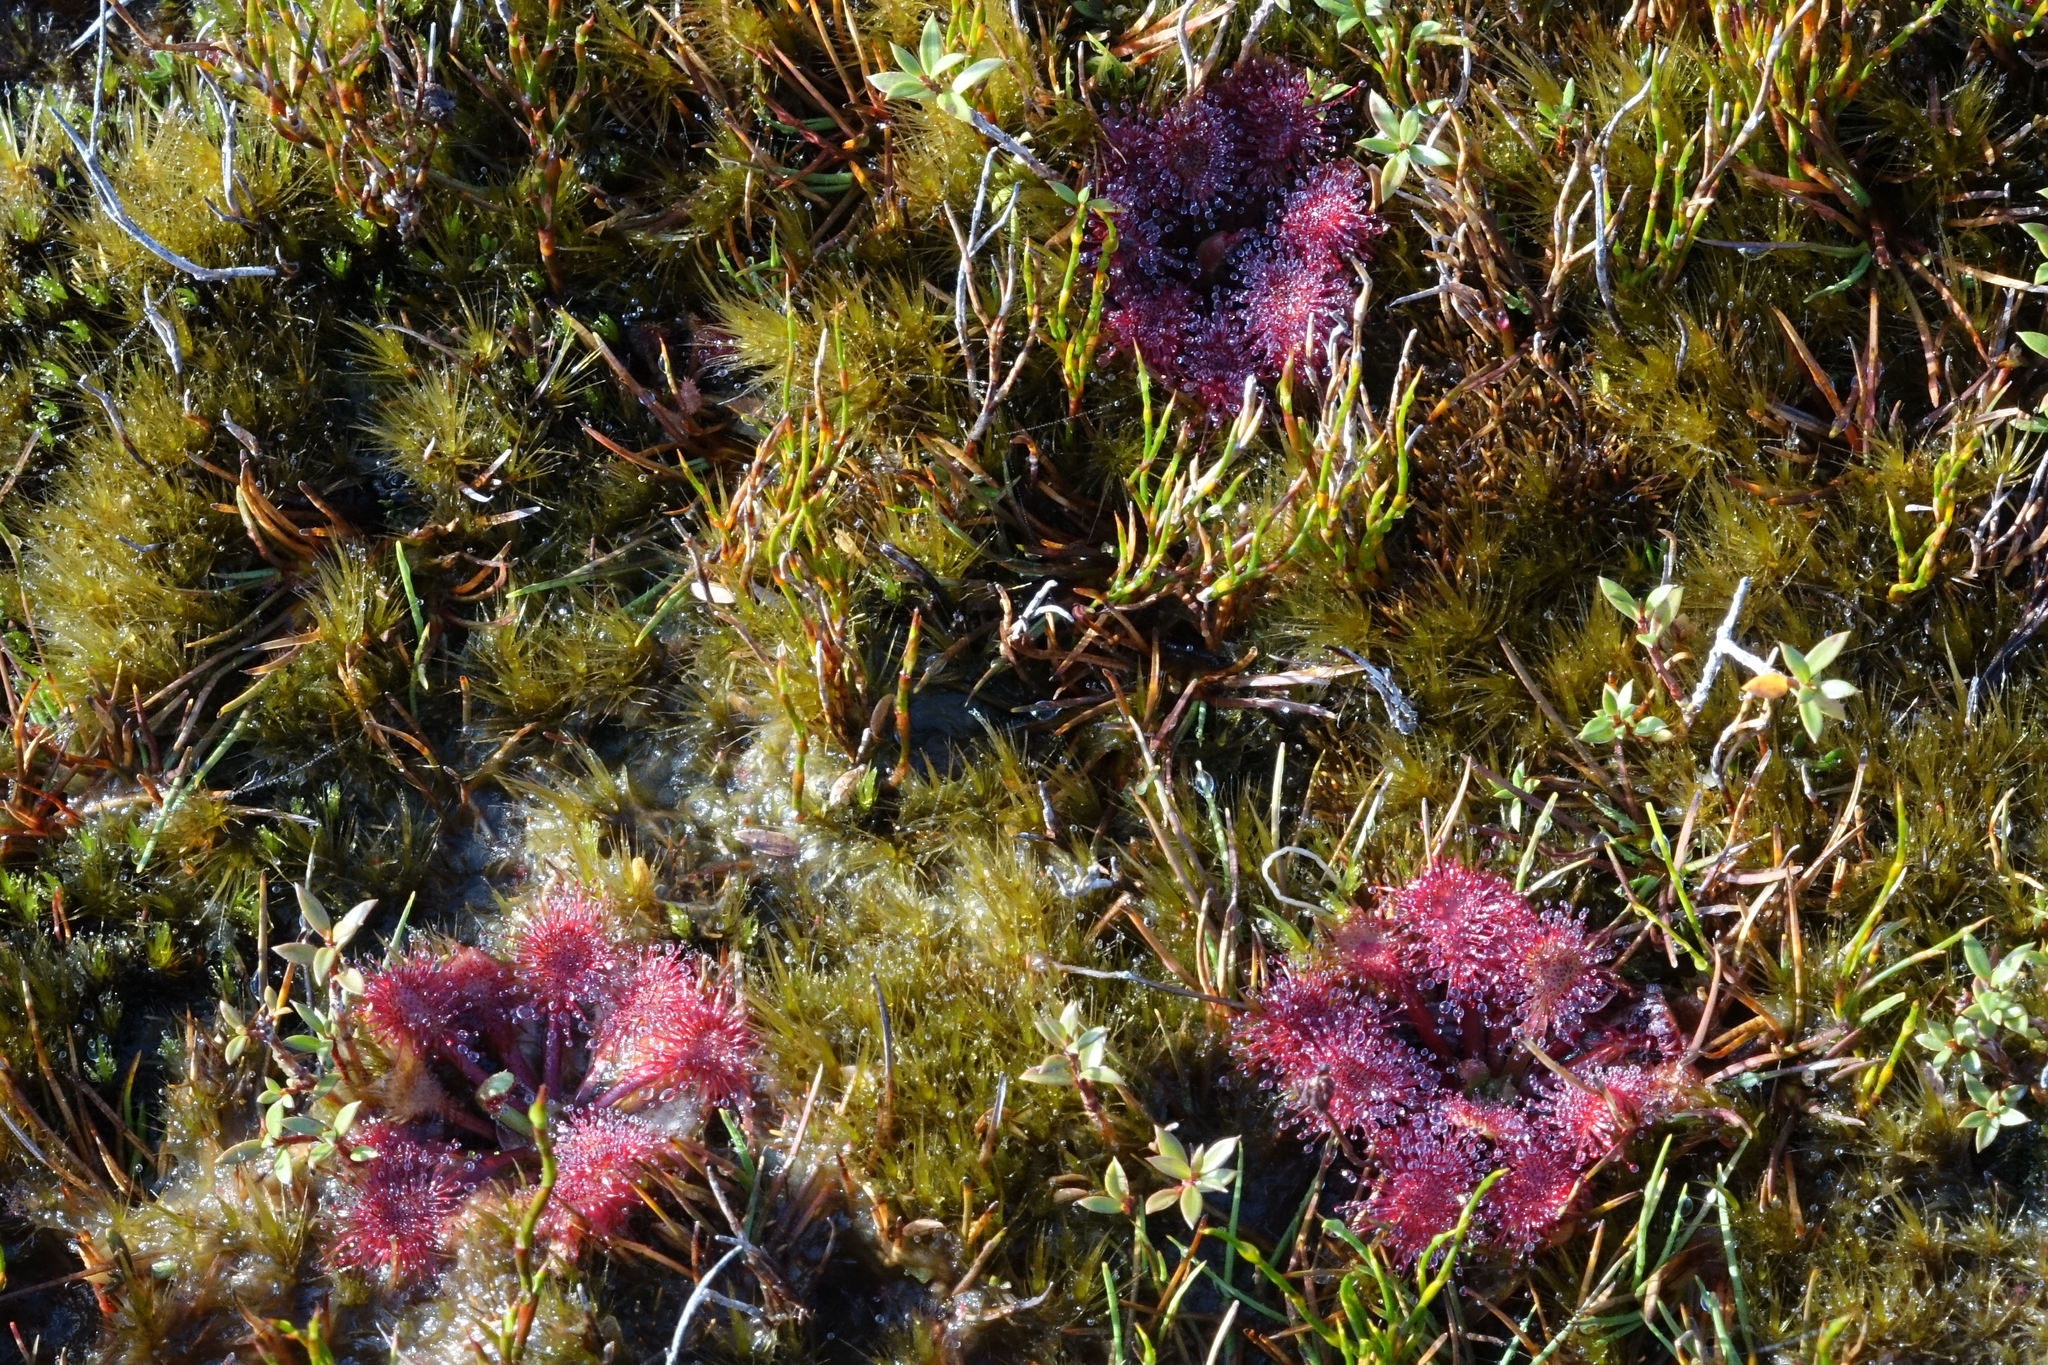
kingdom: Plantae
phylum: Tracheophyta
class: Magnoliopsida
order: Caryophyllales
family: Droseraceae
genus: Drosera
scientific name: Drosera spatulata
